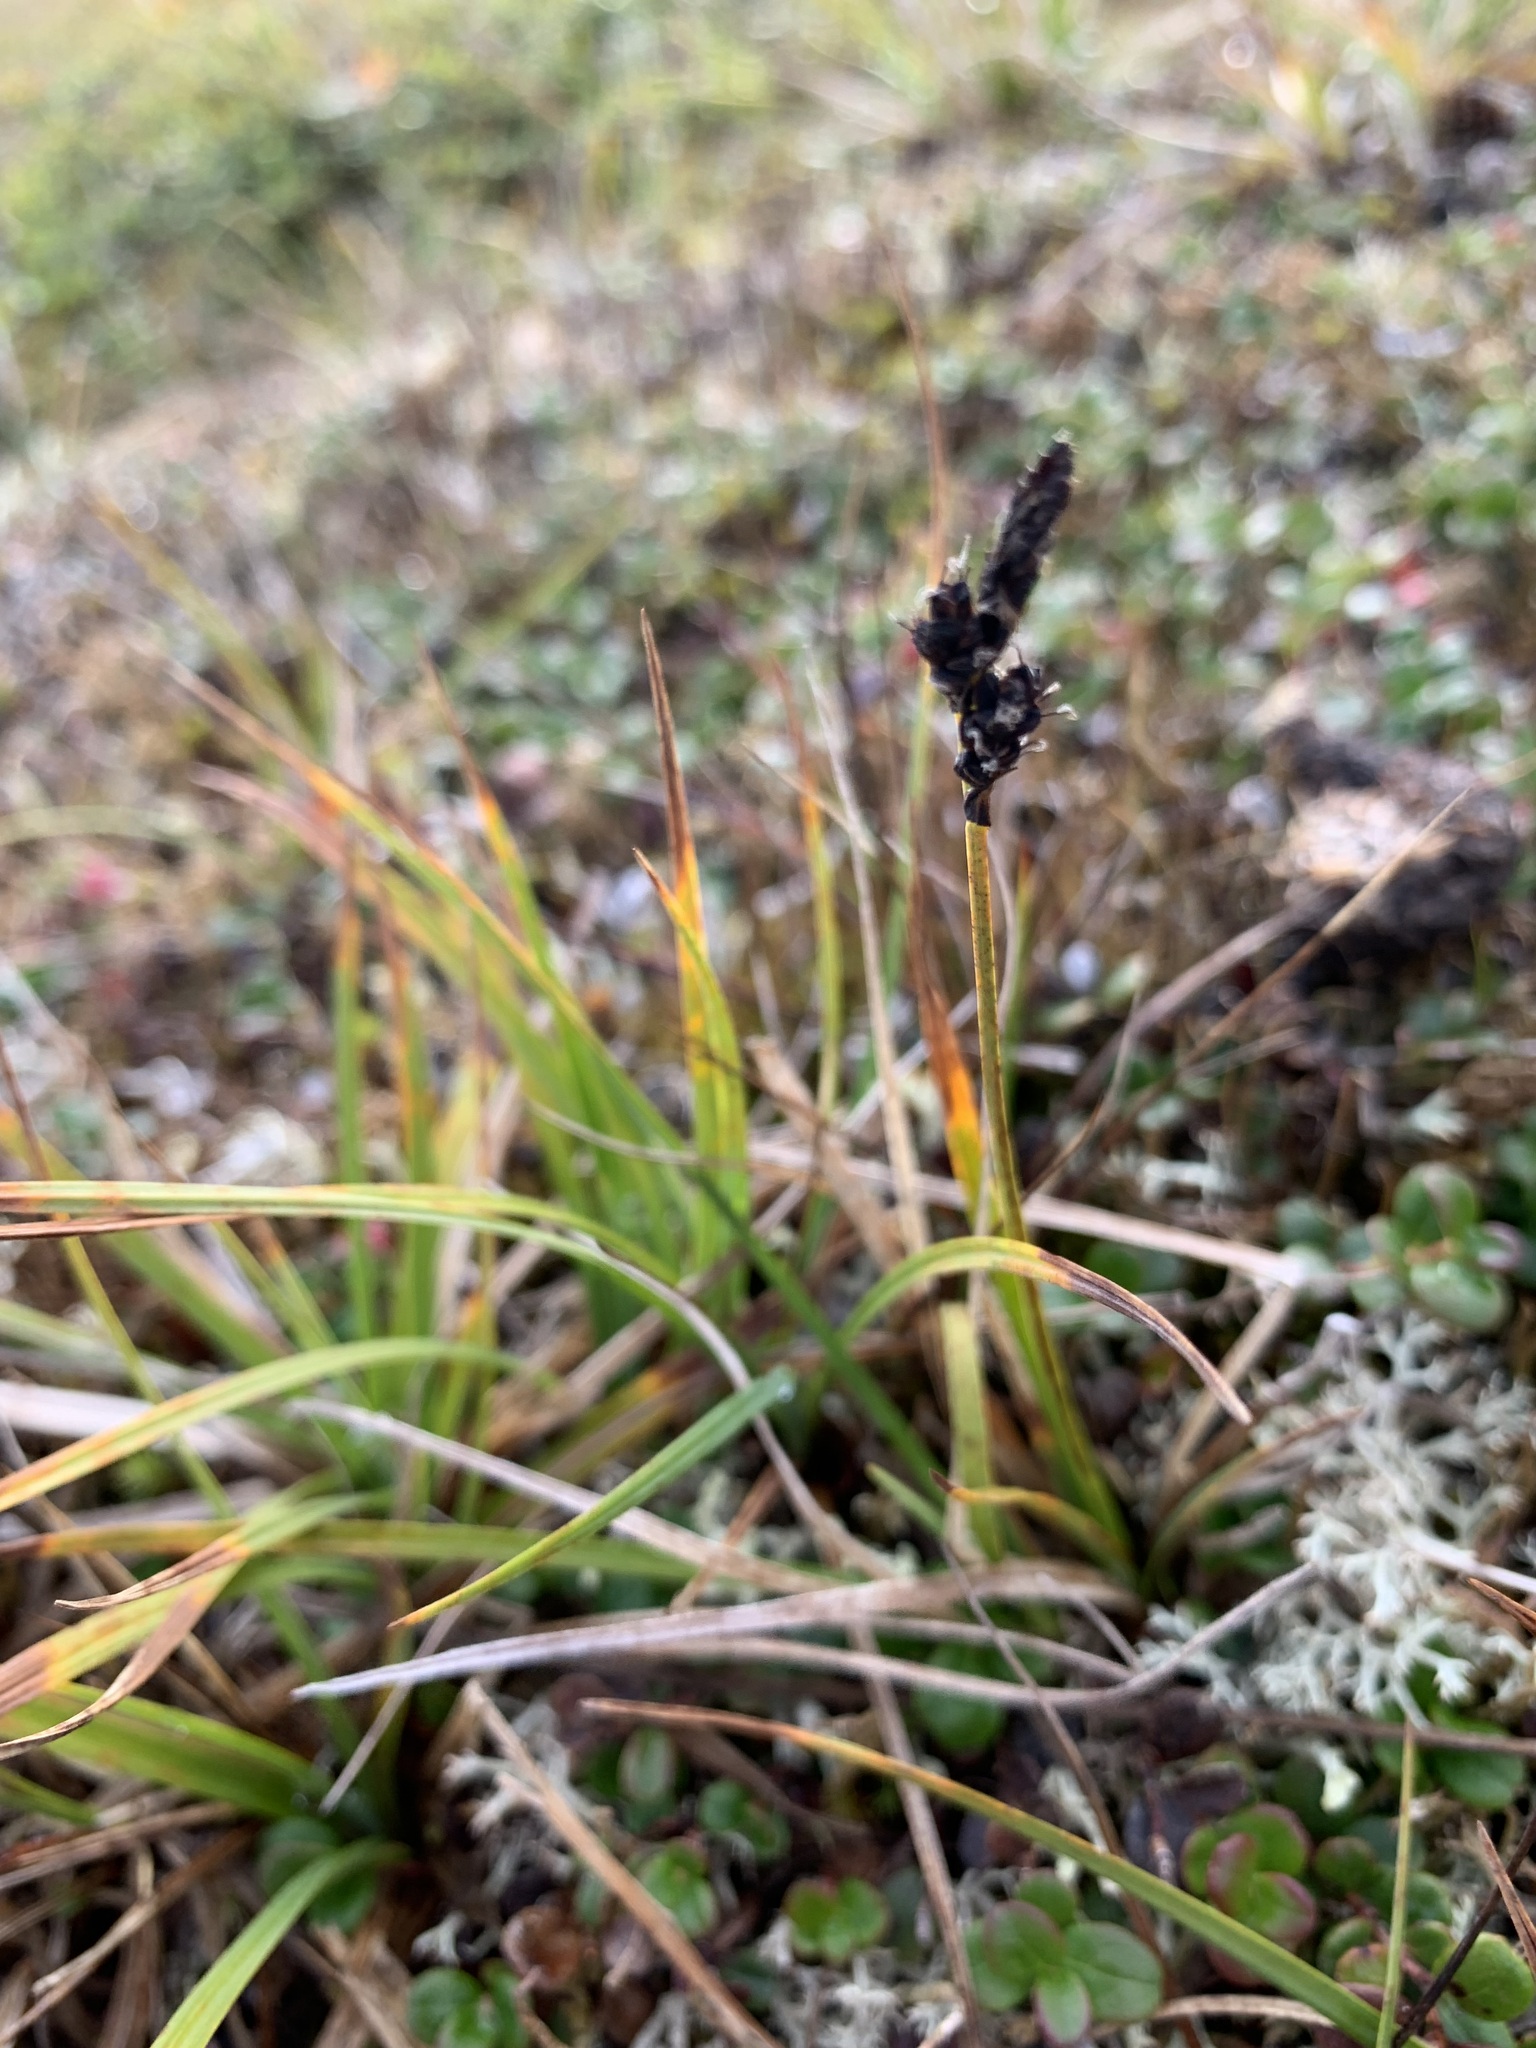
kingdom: Plantae
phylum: Tracheophyta
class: Liliopsida
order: Poales
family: Cyperaceae
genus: Carex
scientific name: Carex bigelowii
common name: Stiff sedge
